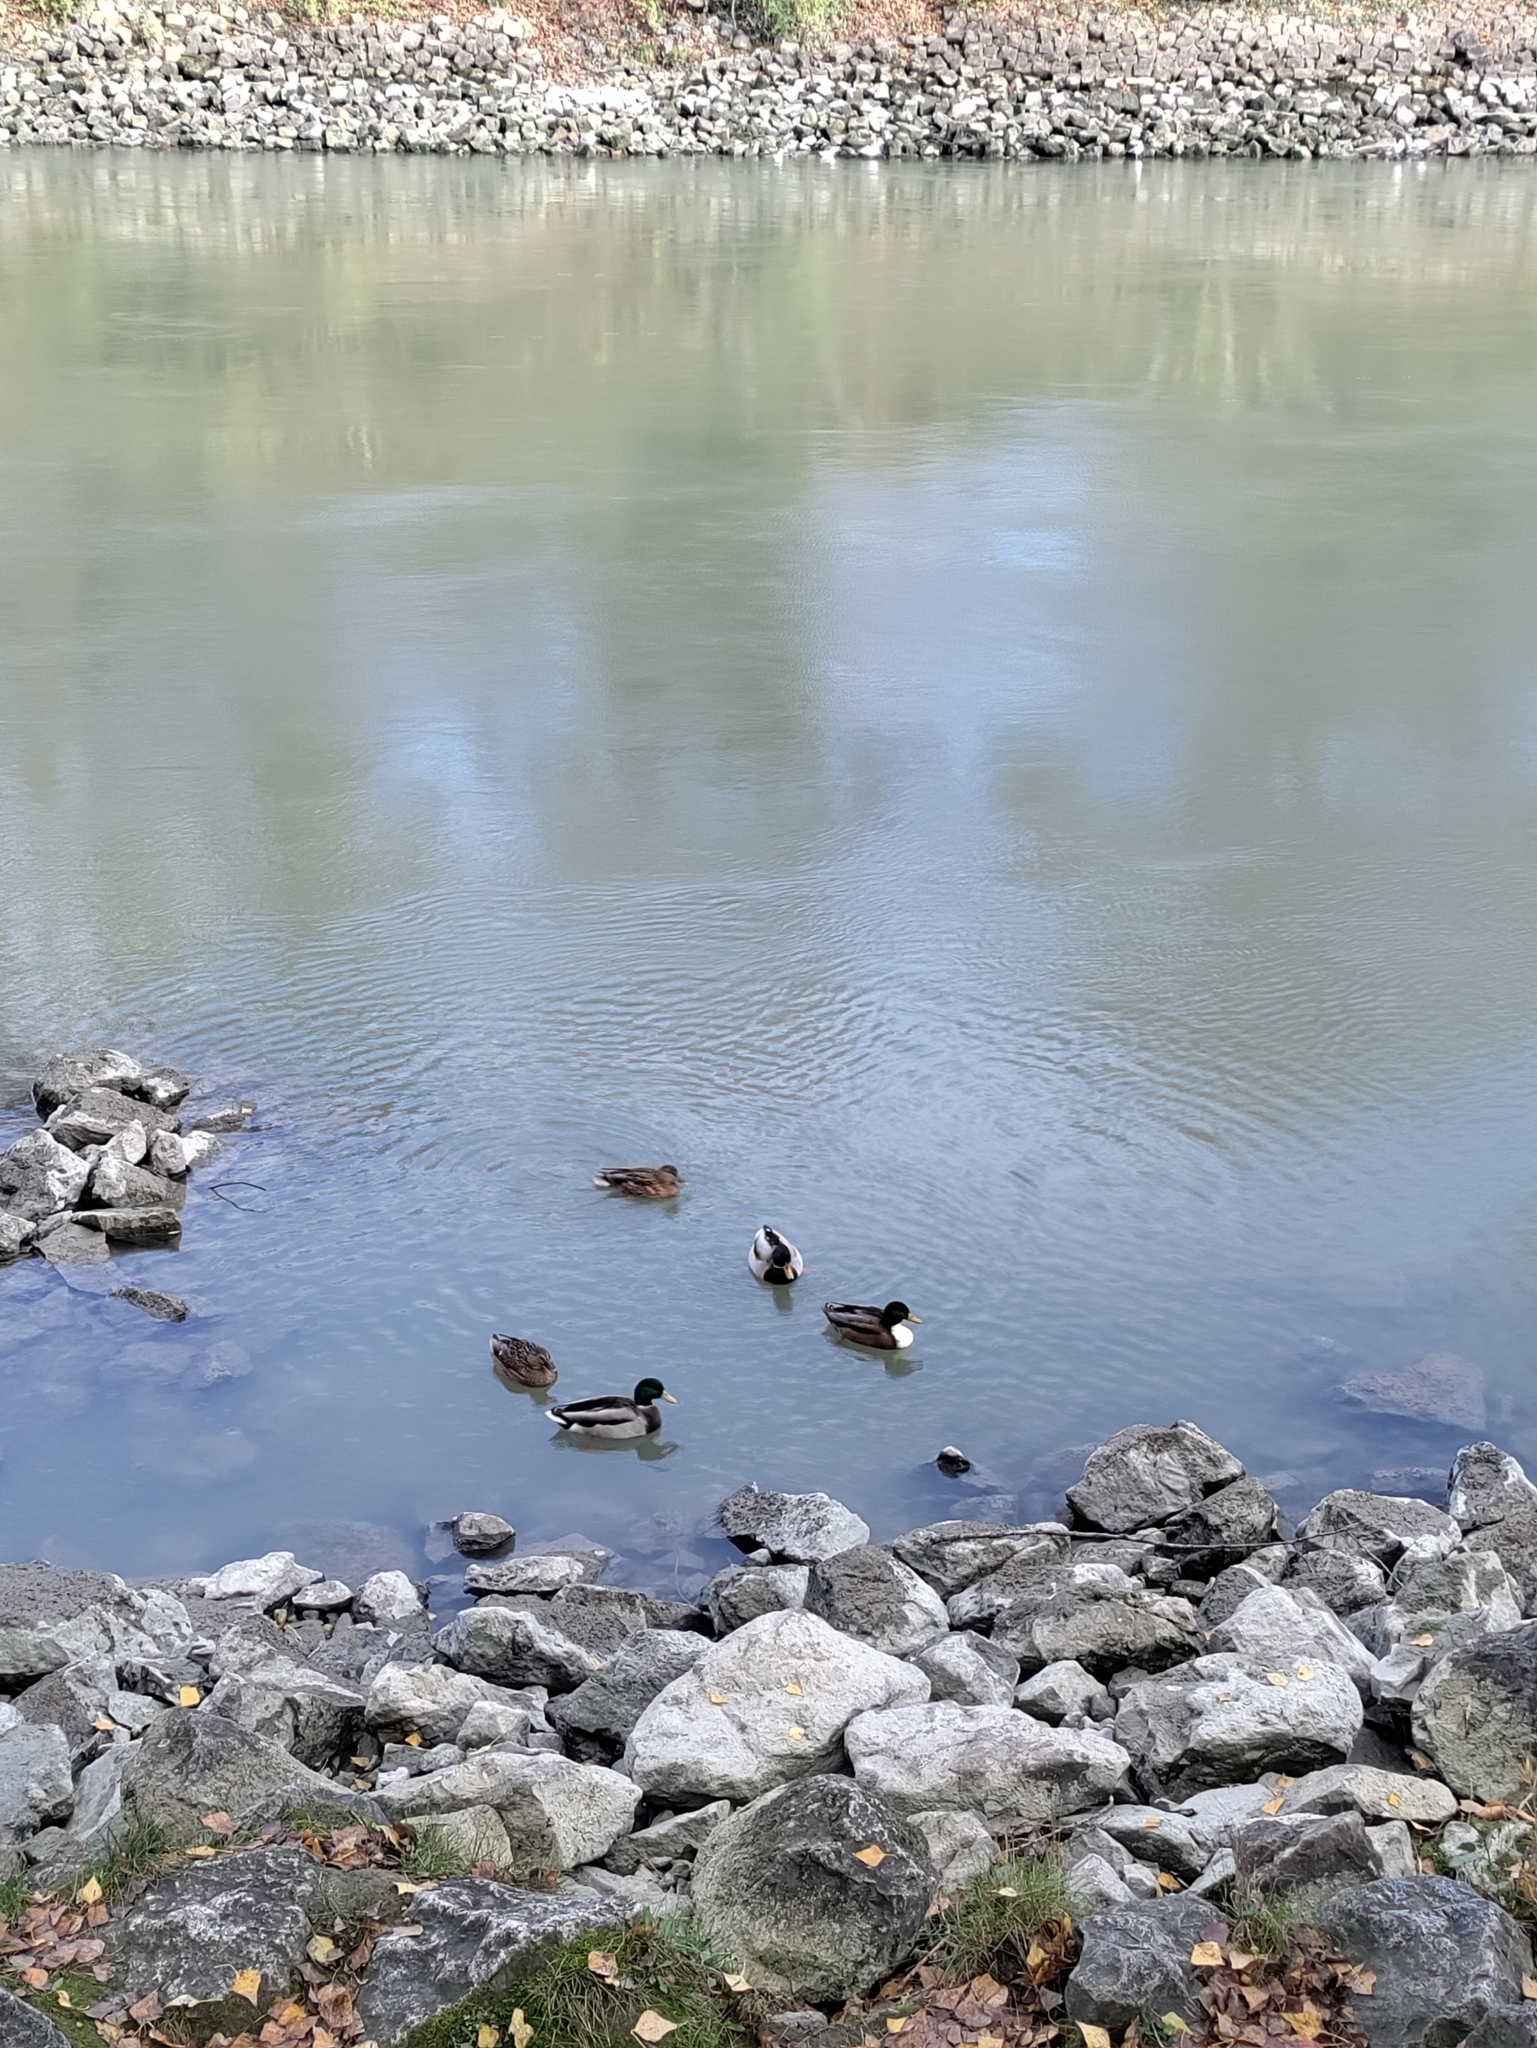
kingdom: Animalia
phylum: Chordata
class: Aves
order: Anseriformes
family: Anatidae
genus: Anas
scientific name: Anas platyrhynchos
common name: Mallard
